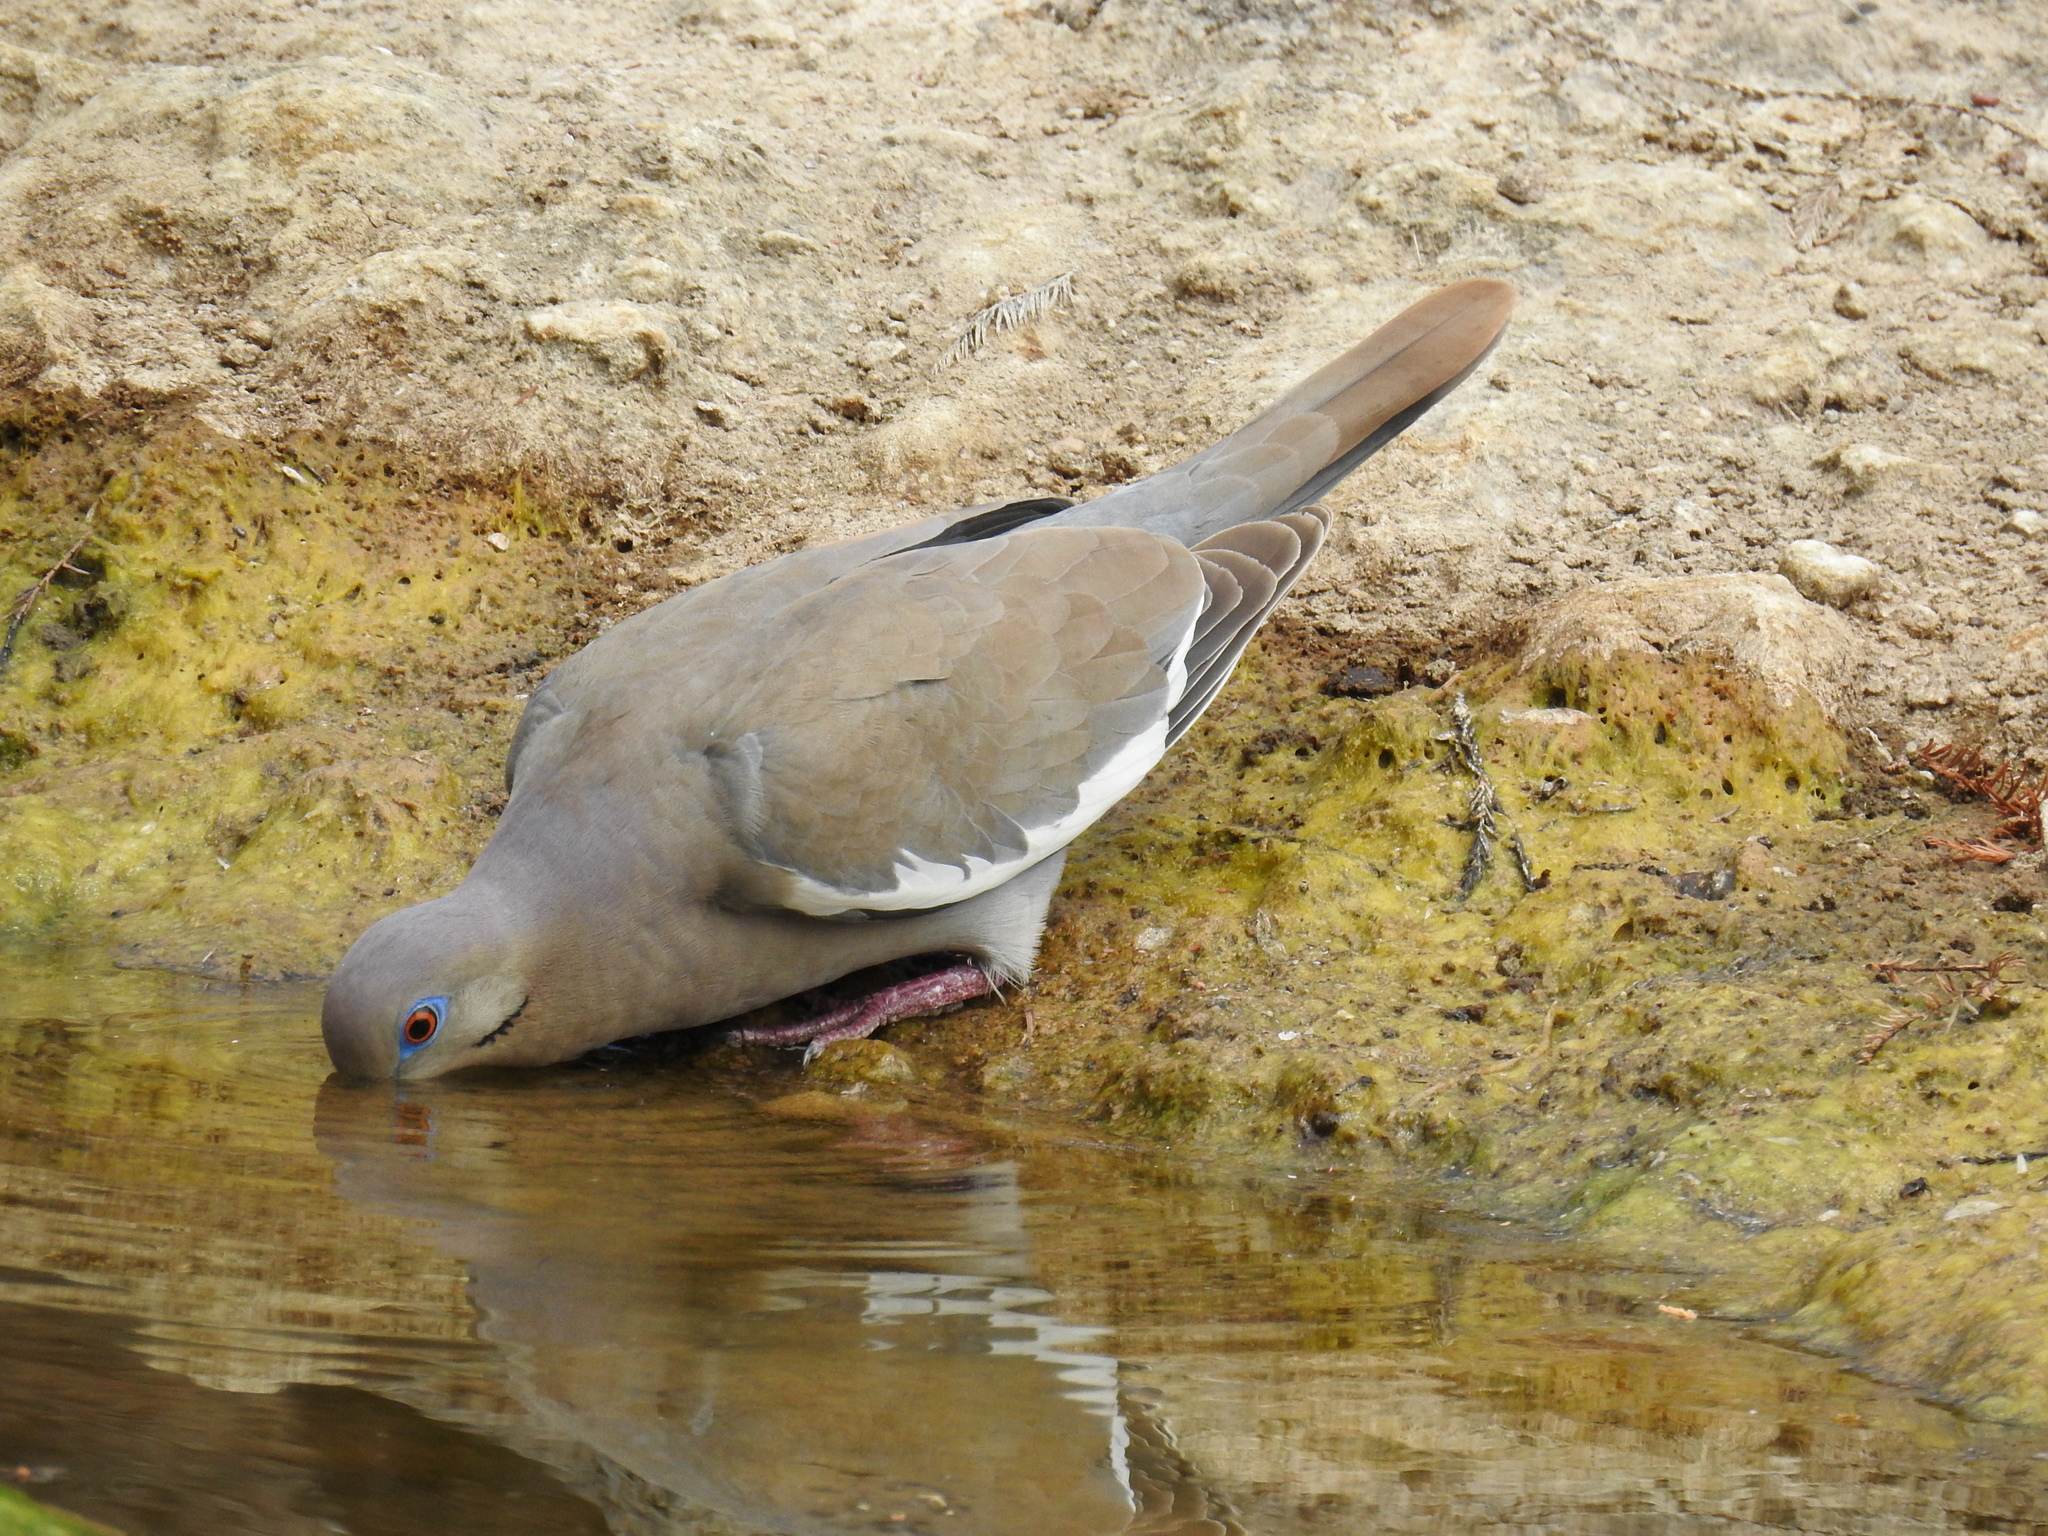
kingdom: Animalia
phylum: Chordata
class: Aves
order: Columbiformes
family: Columbidae
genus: Zenaida
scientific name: Zenaida asiatica
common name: White-winged dove
